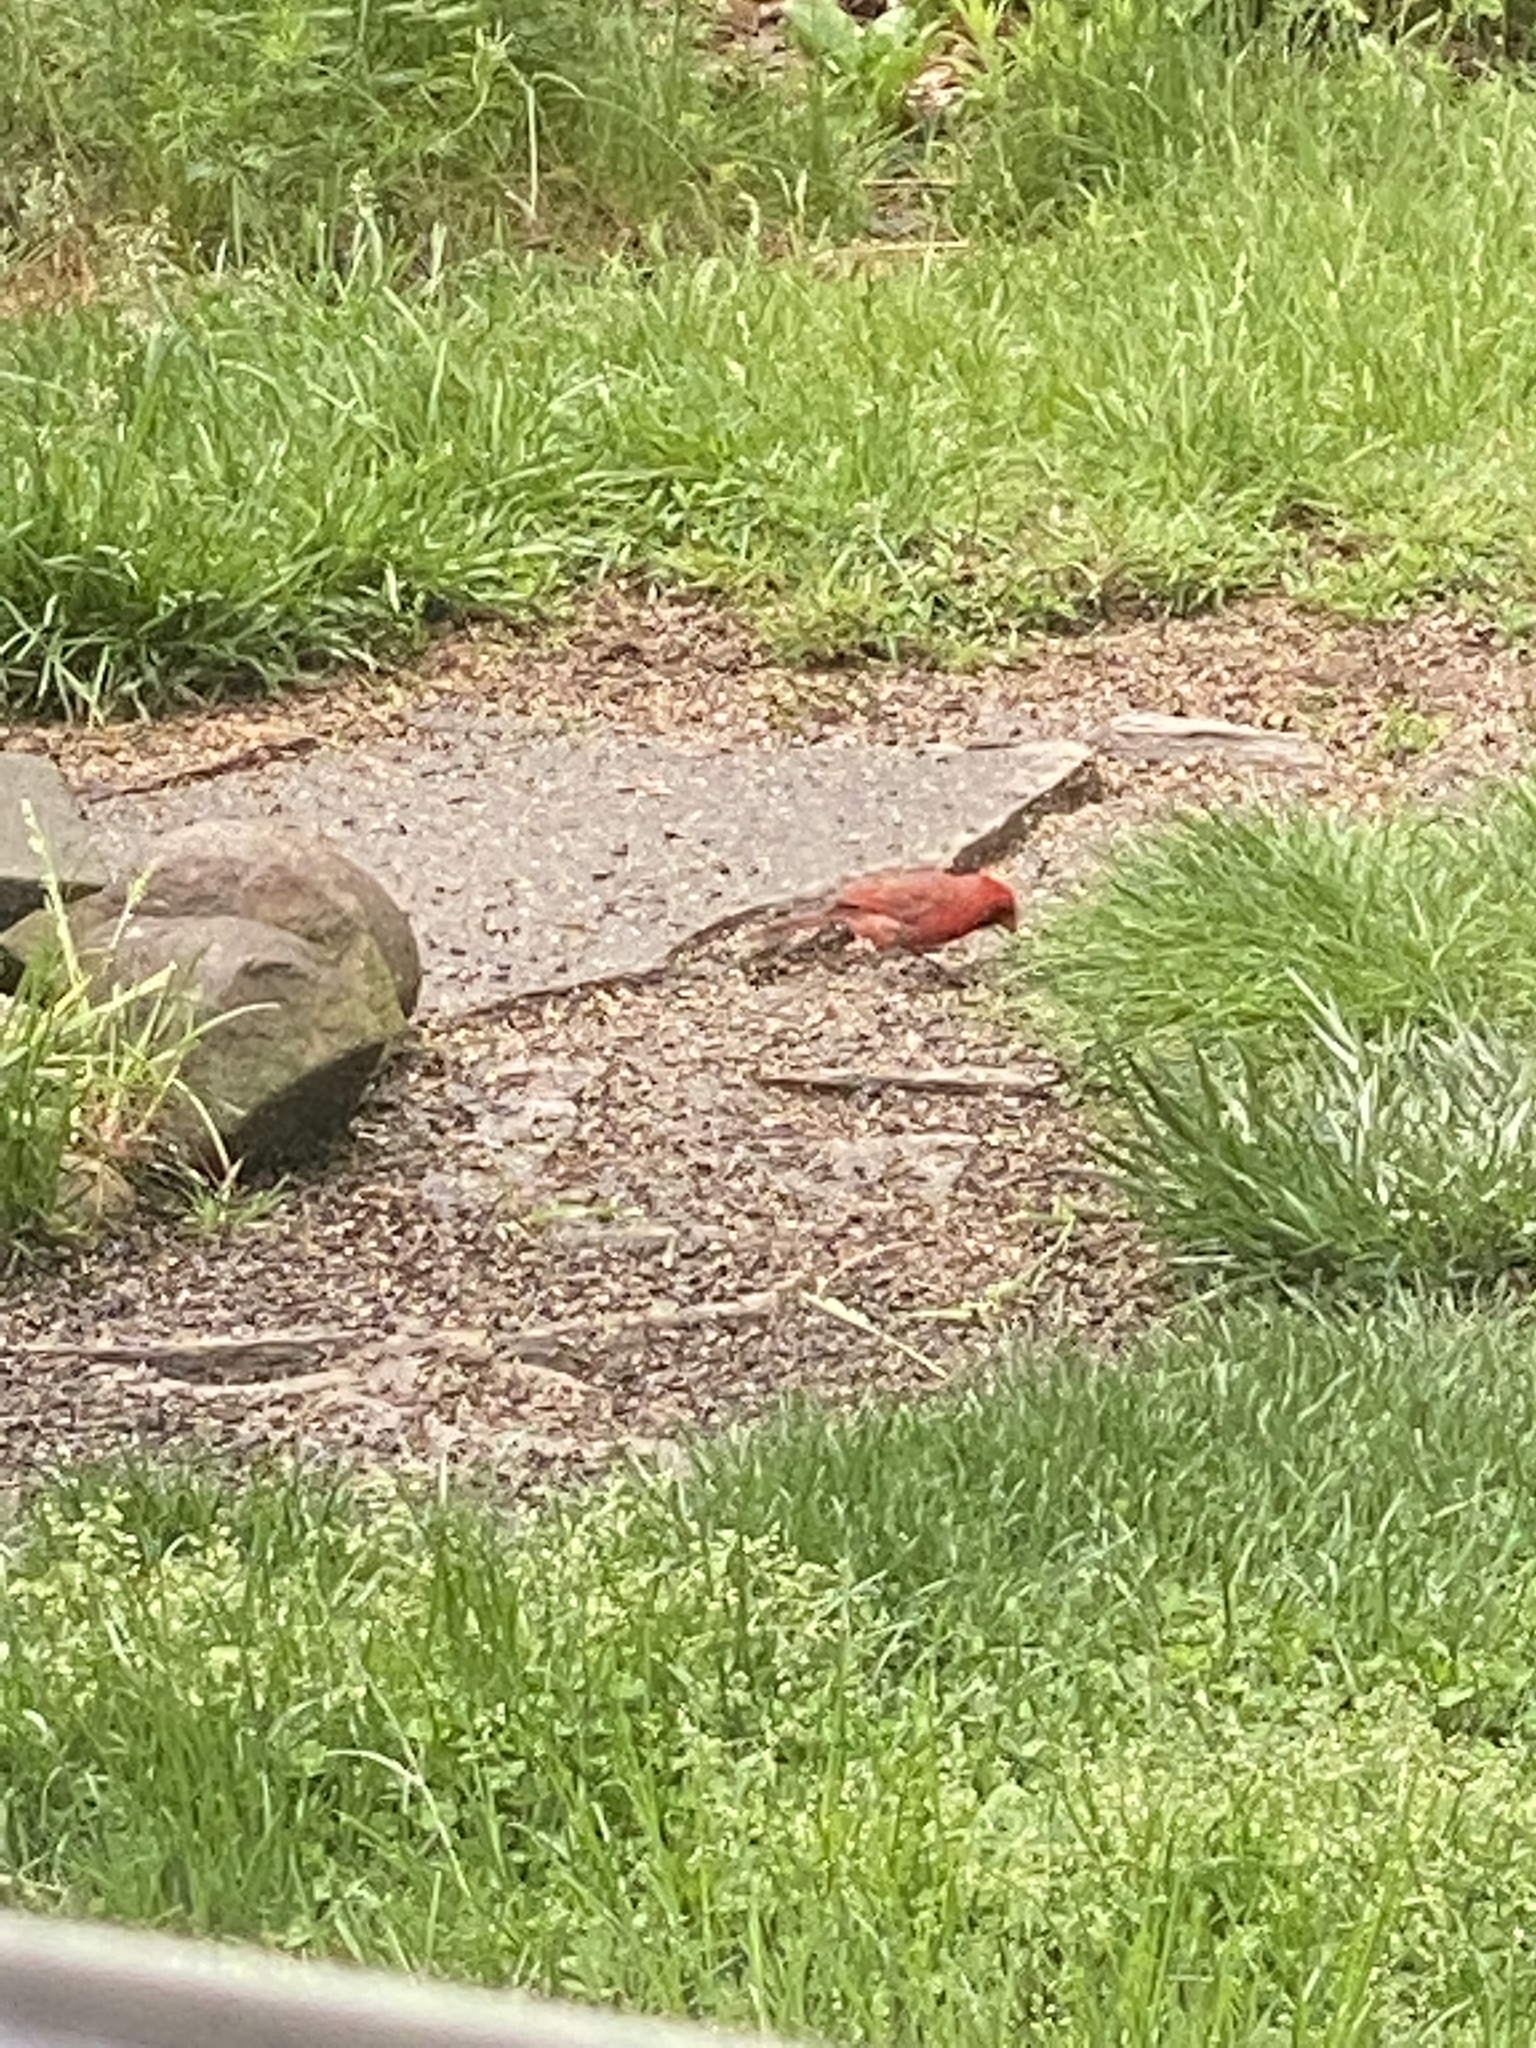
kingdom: Animalia
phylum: Chordata
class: Aves
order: Passeriformes
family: Cardinalidae
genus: Cardinalis
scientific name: Cardinalis cardinalis
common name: Northern cardinal
